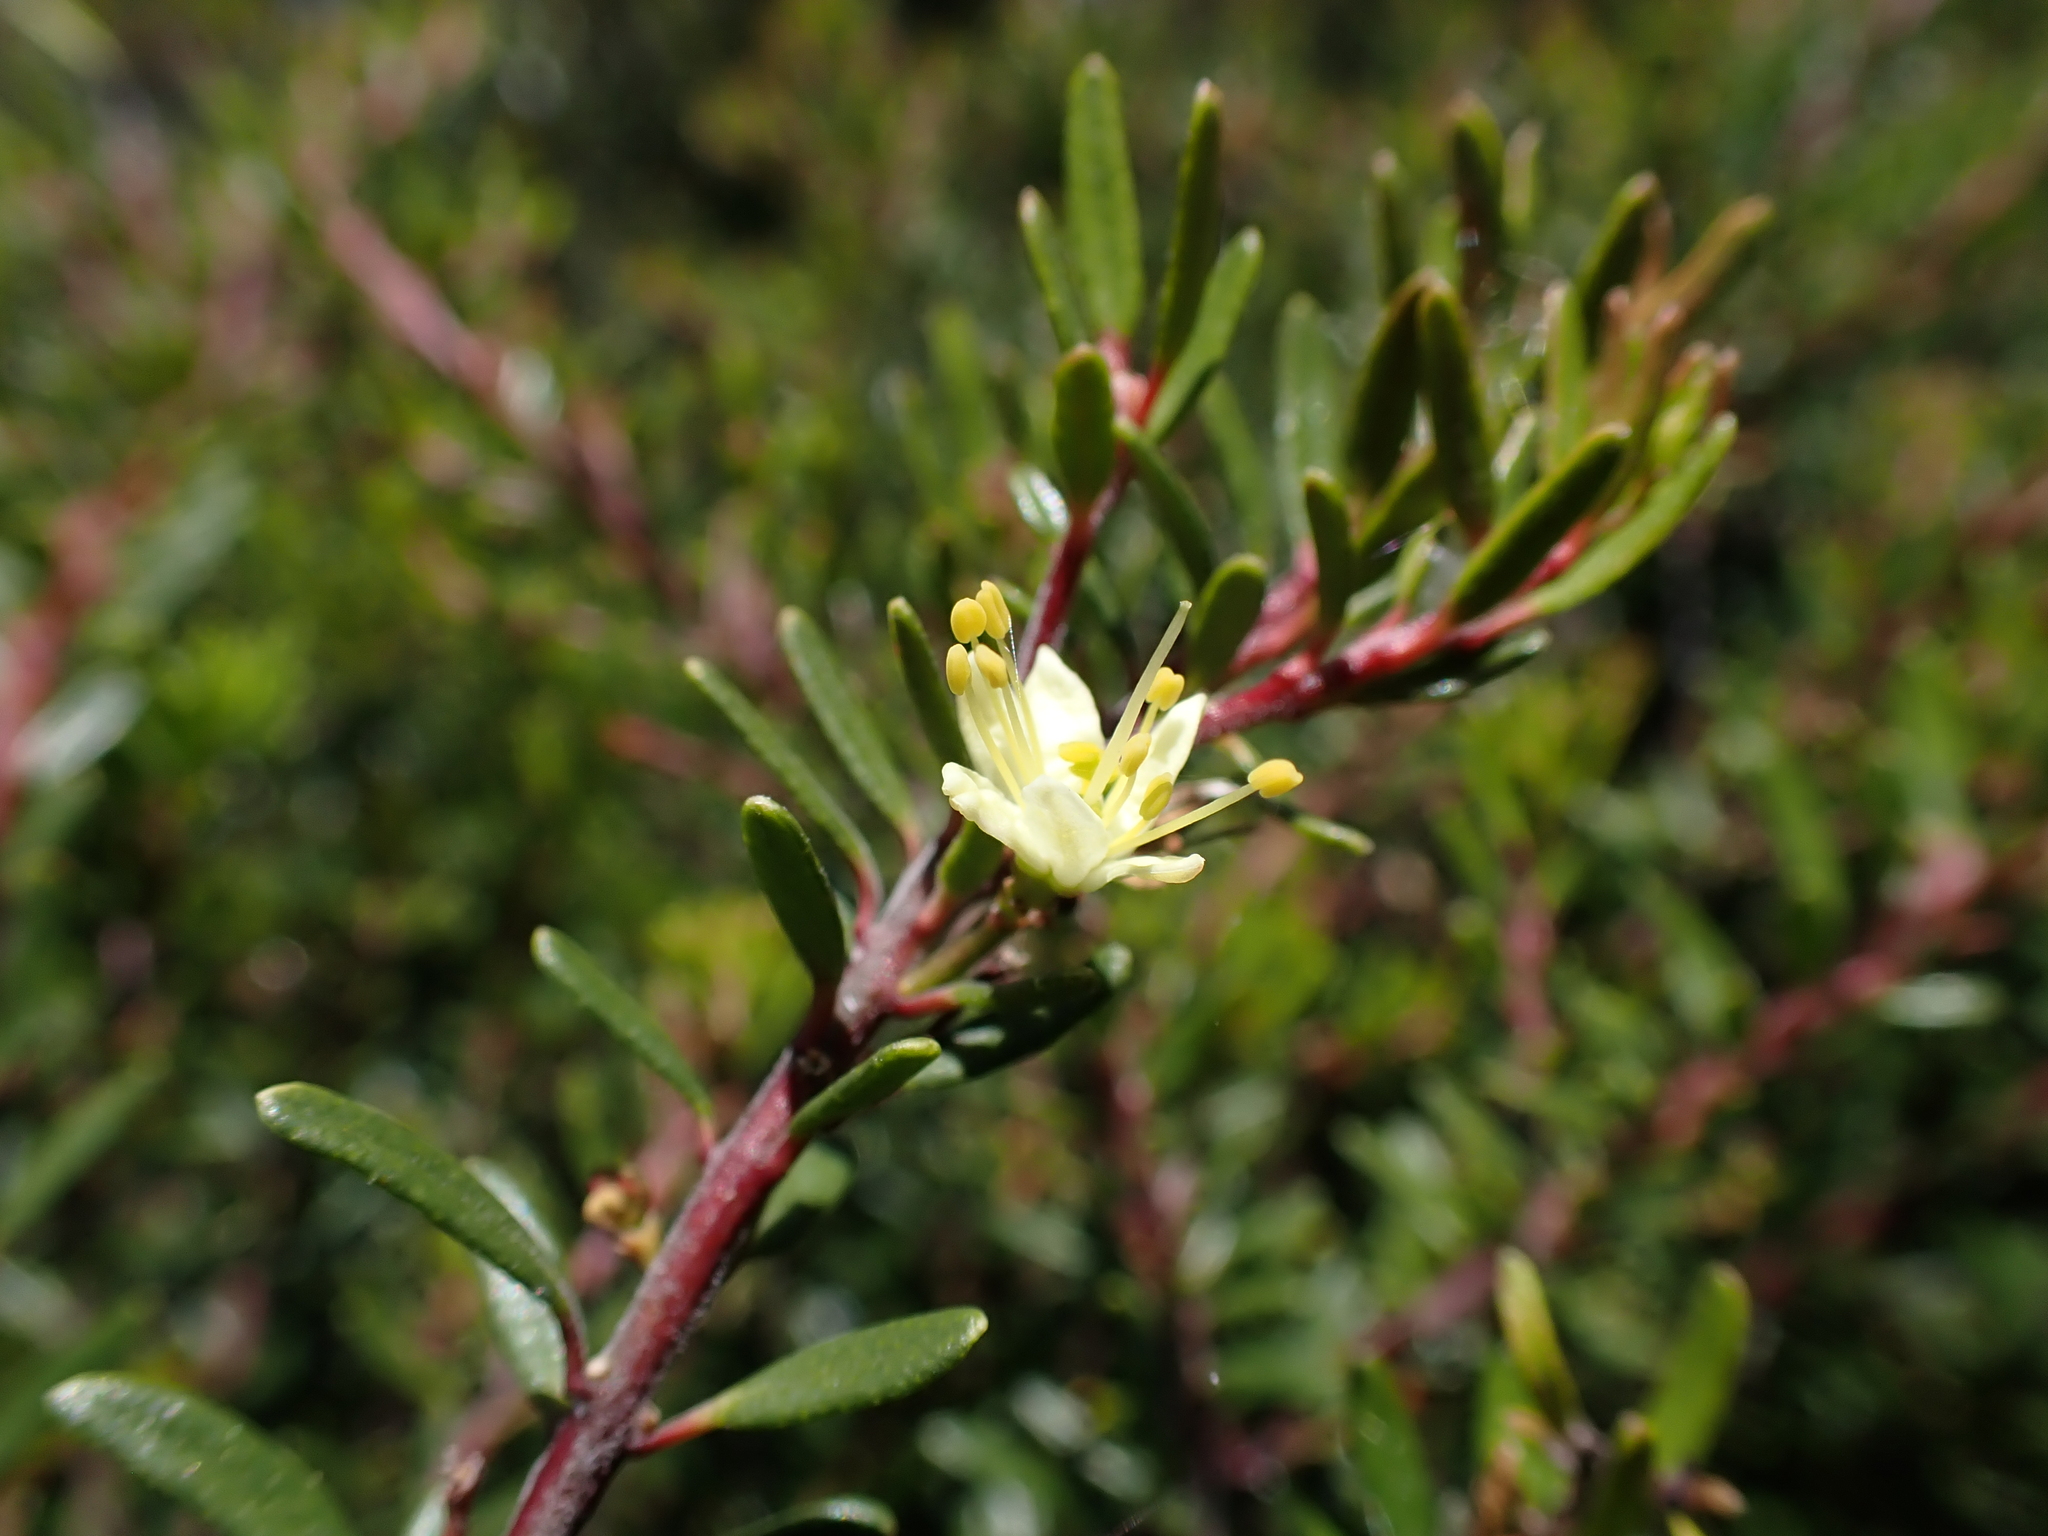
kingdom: Plantae
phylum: Tracheophyta
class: Magnoliopsida
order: Sapindales
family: Rutaceae
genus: Leionema
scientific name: Leionema phylicifolium
